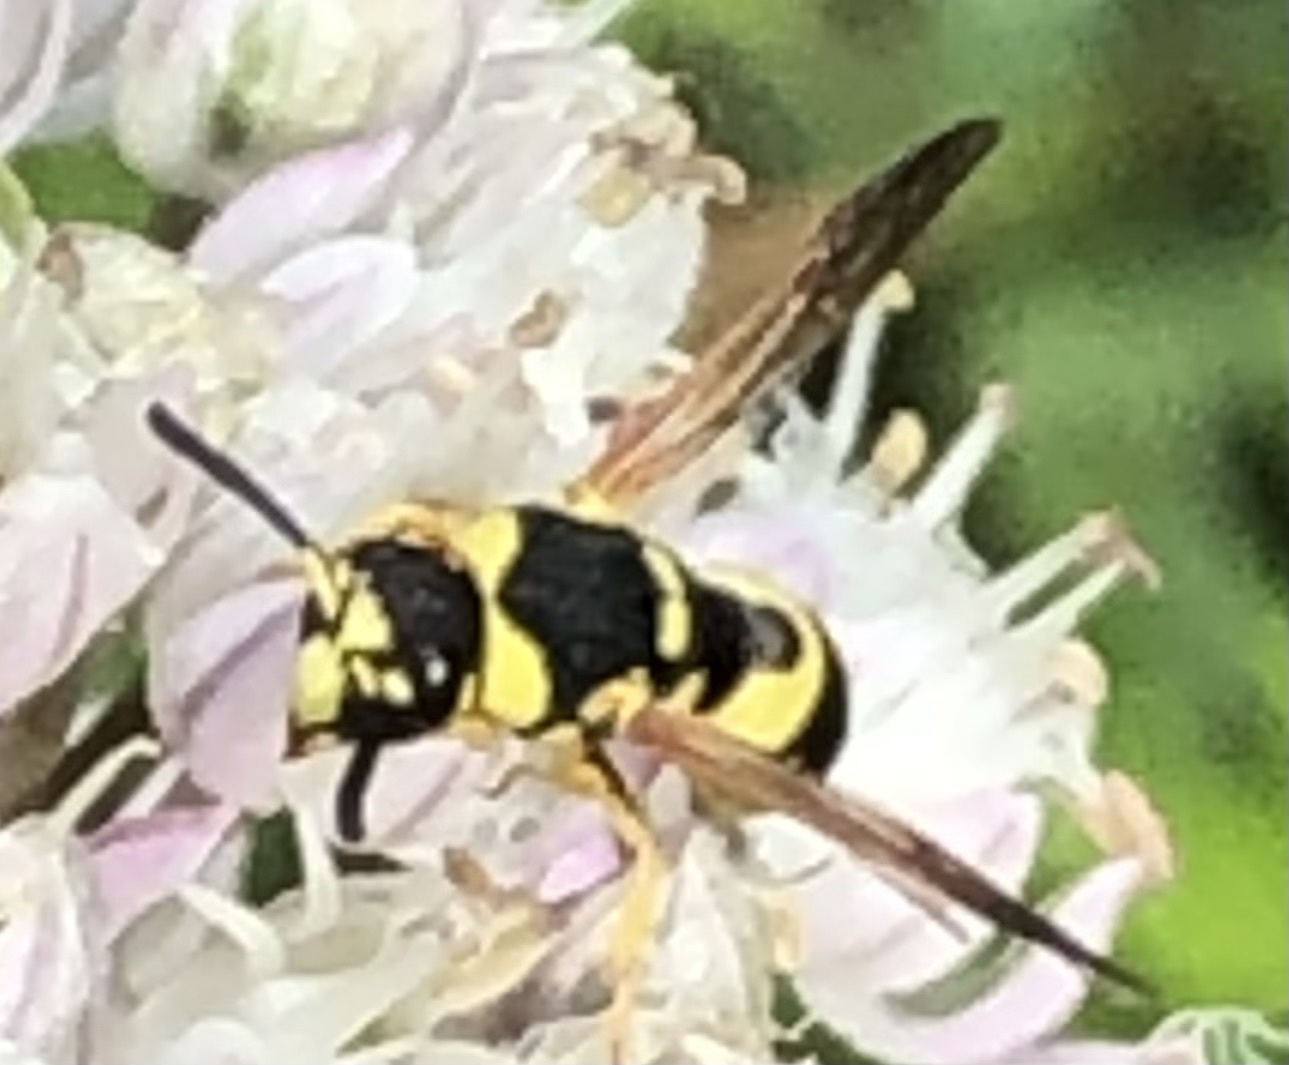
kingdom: Animalia
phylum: Arthropoda
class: Insecta
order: Hymenoptera
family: Eumenidae
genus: Euodynerus
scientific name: Euodynerus
